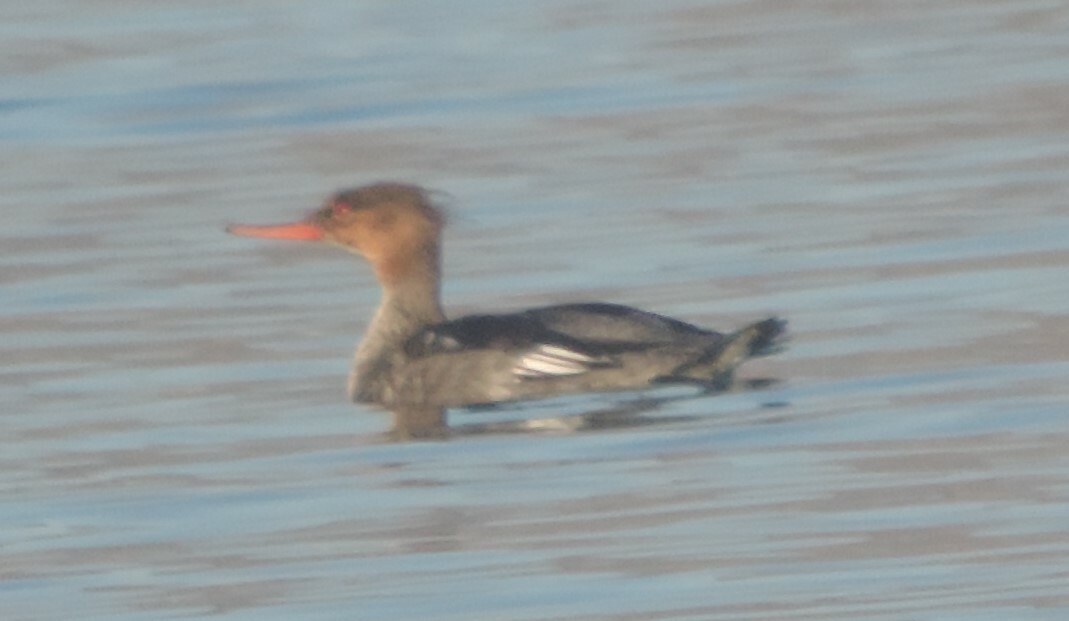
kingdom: Animalia
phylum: Chordata
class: Aves
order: Anseriformes
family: Anatidae
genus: Mergus
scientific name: Mergus serrator
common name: Red-breasted merganser
